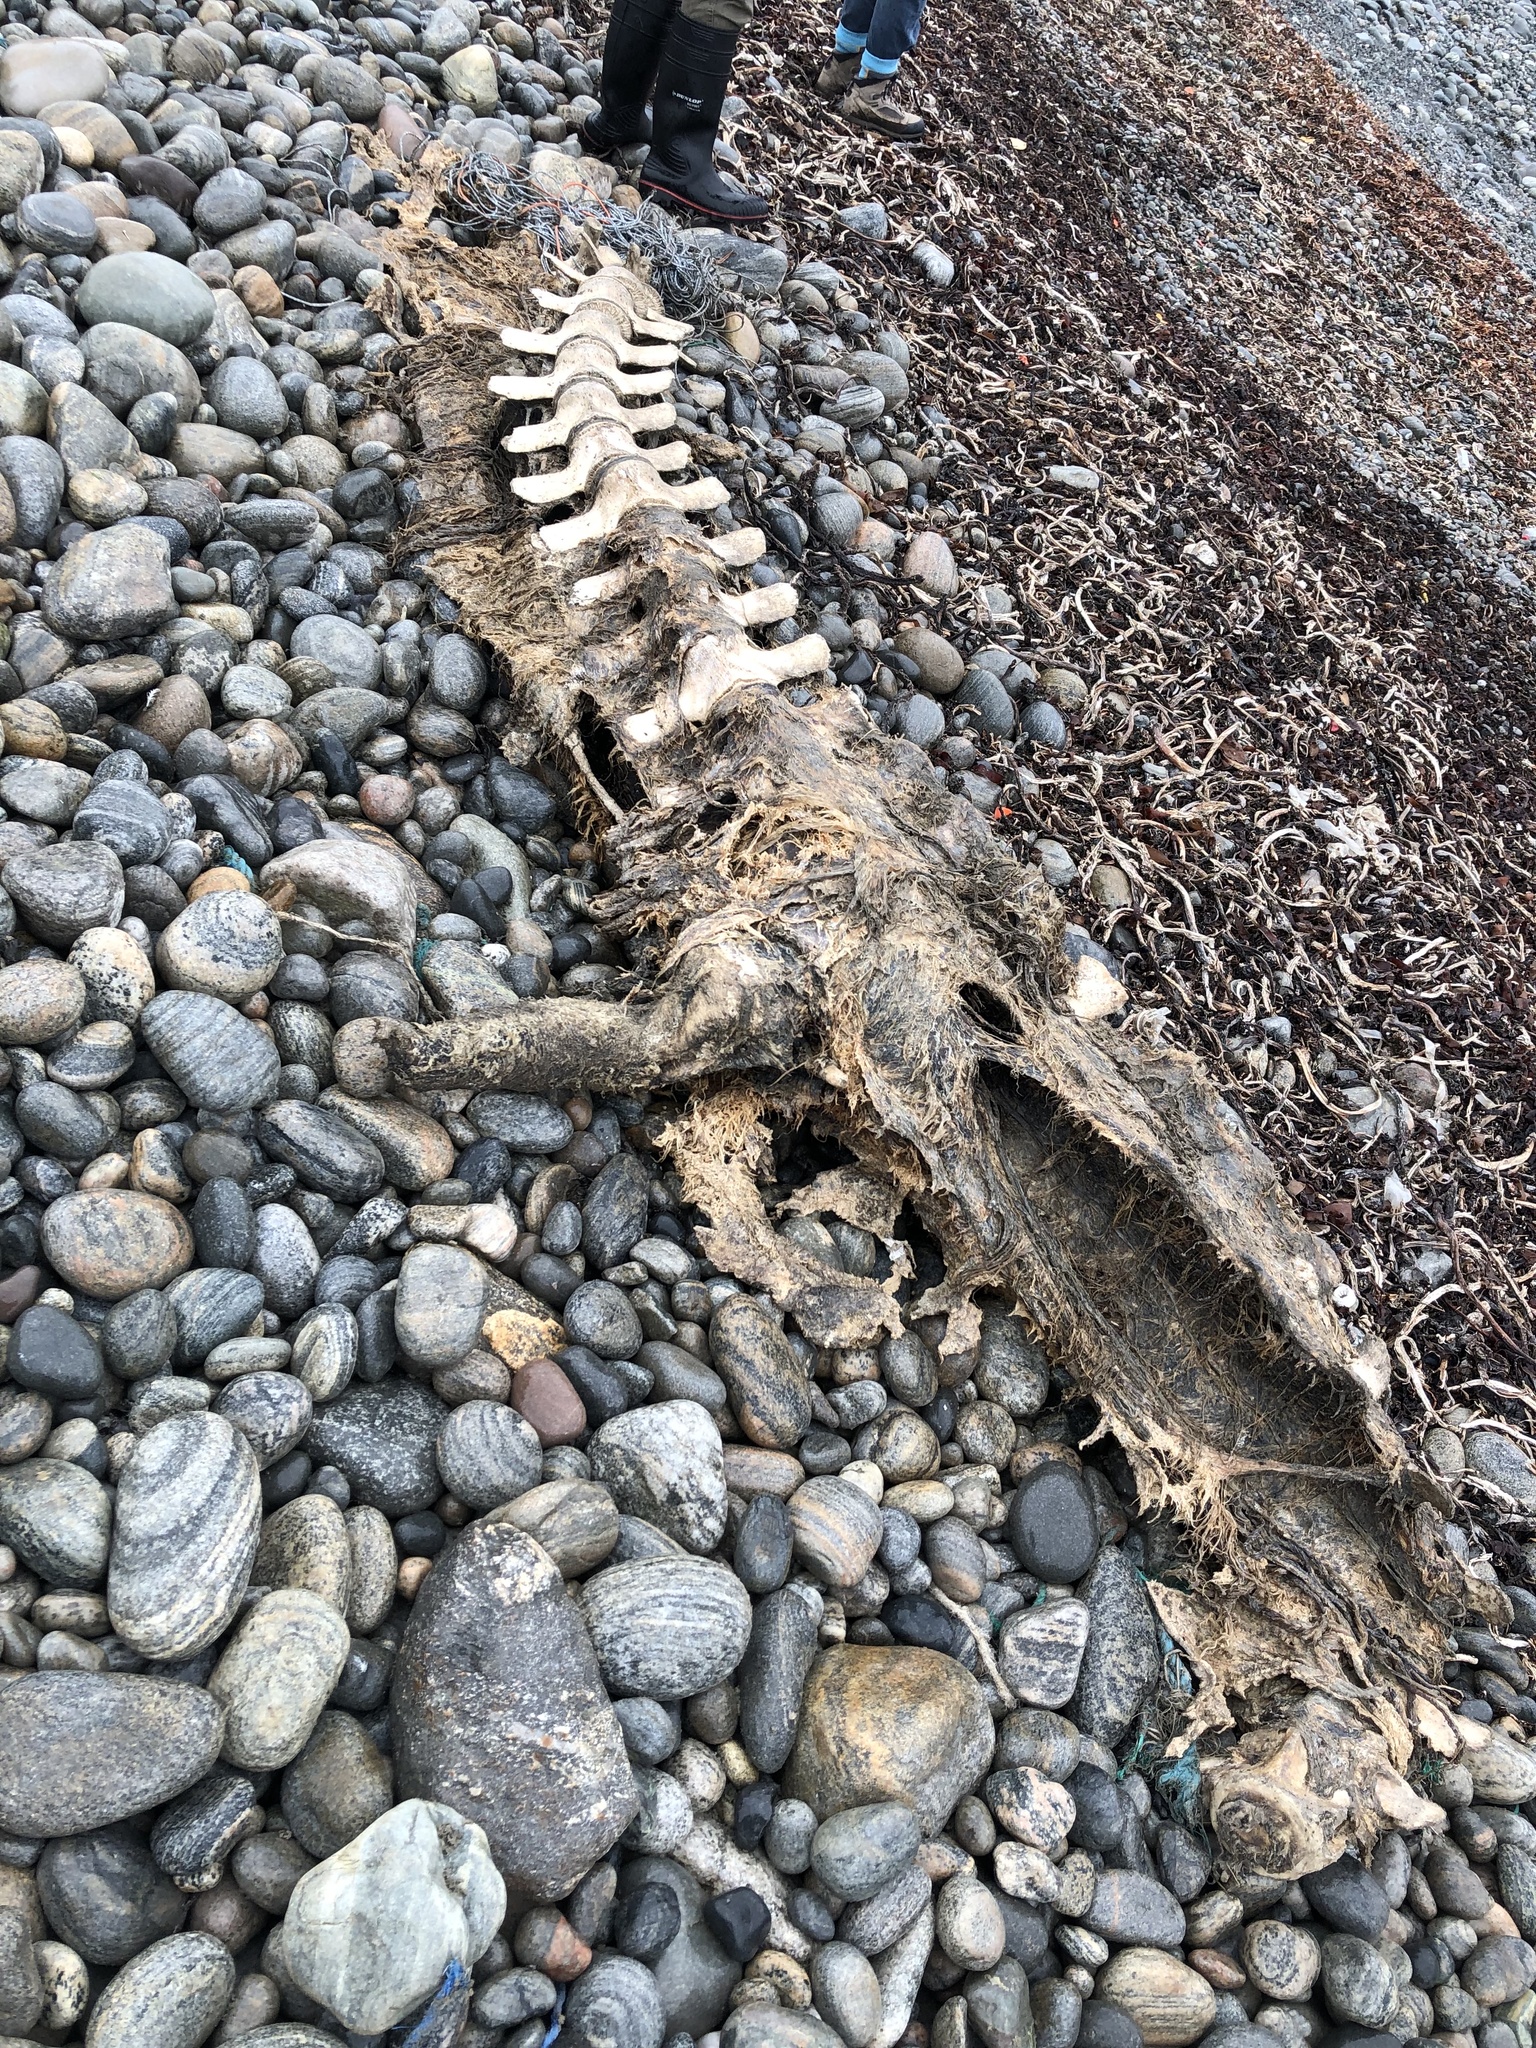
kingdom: Animalia
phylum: Chordata
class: Mammalia
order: Cetacea
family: Balaenopteridae
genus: Balaenoptera
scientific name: Balaenoptera acutorostrata
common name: Common minke whale
